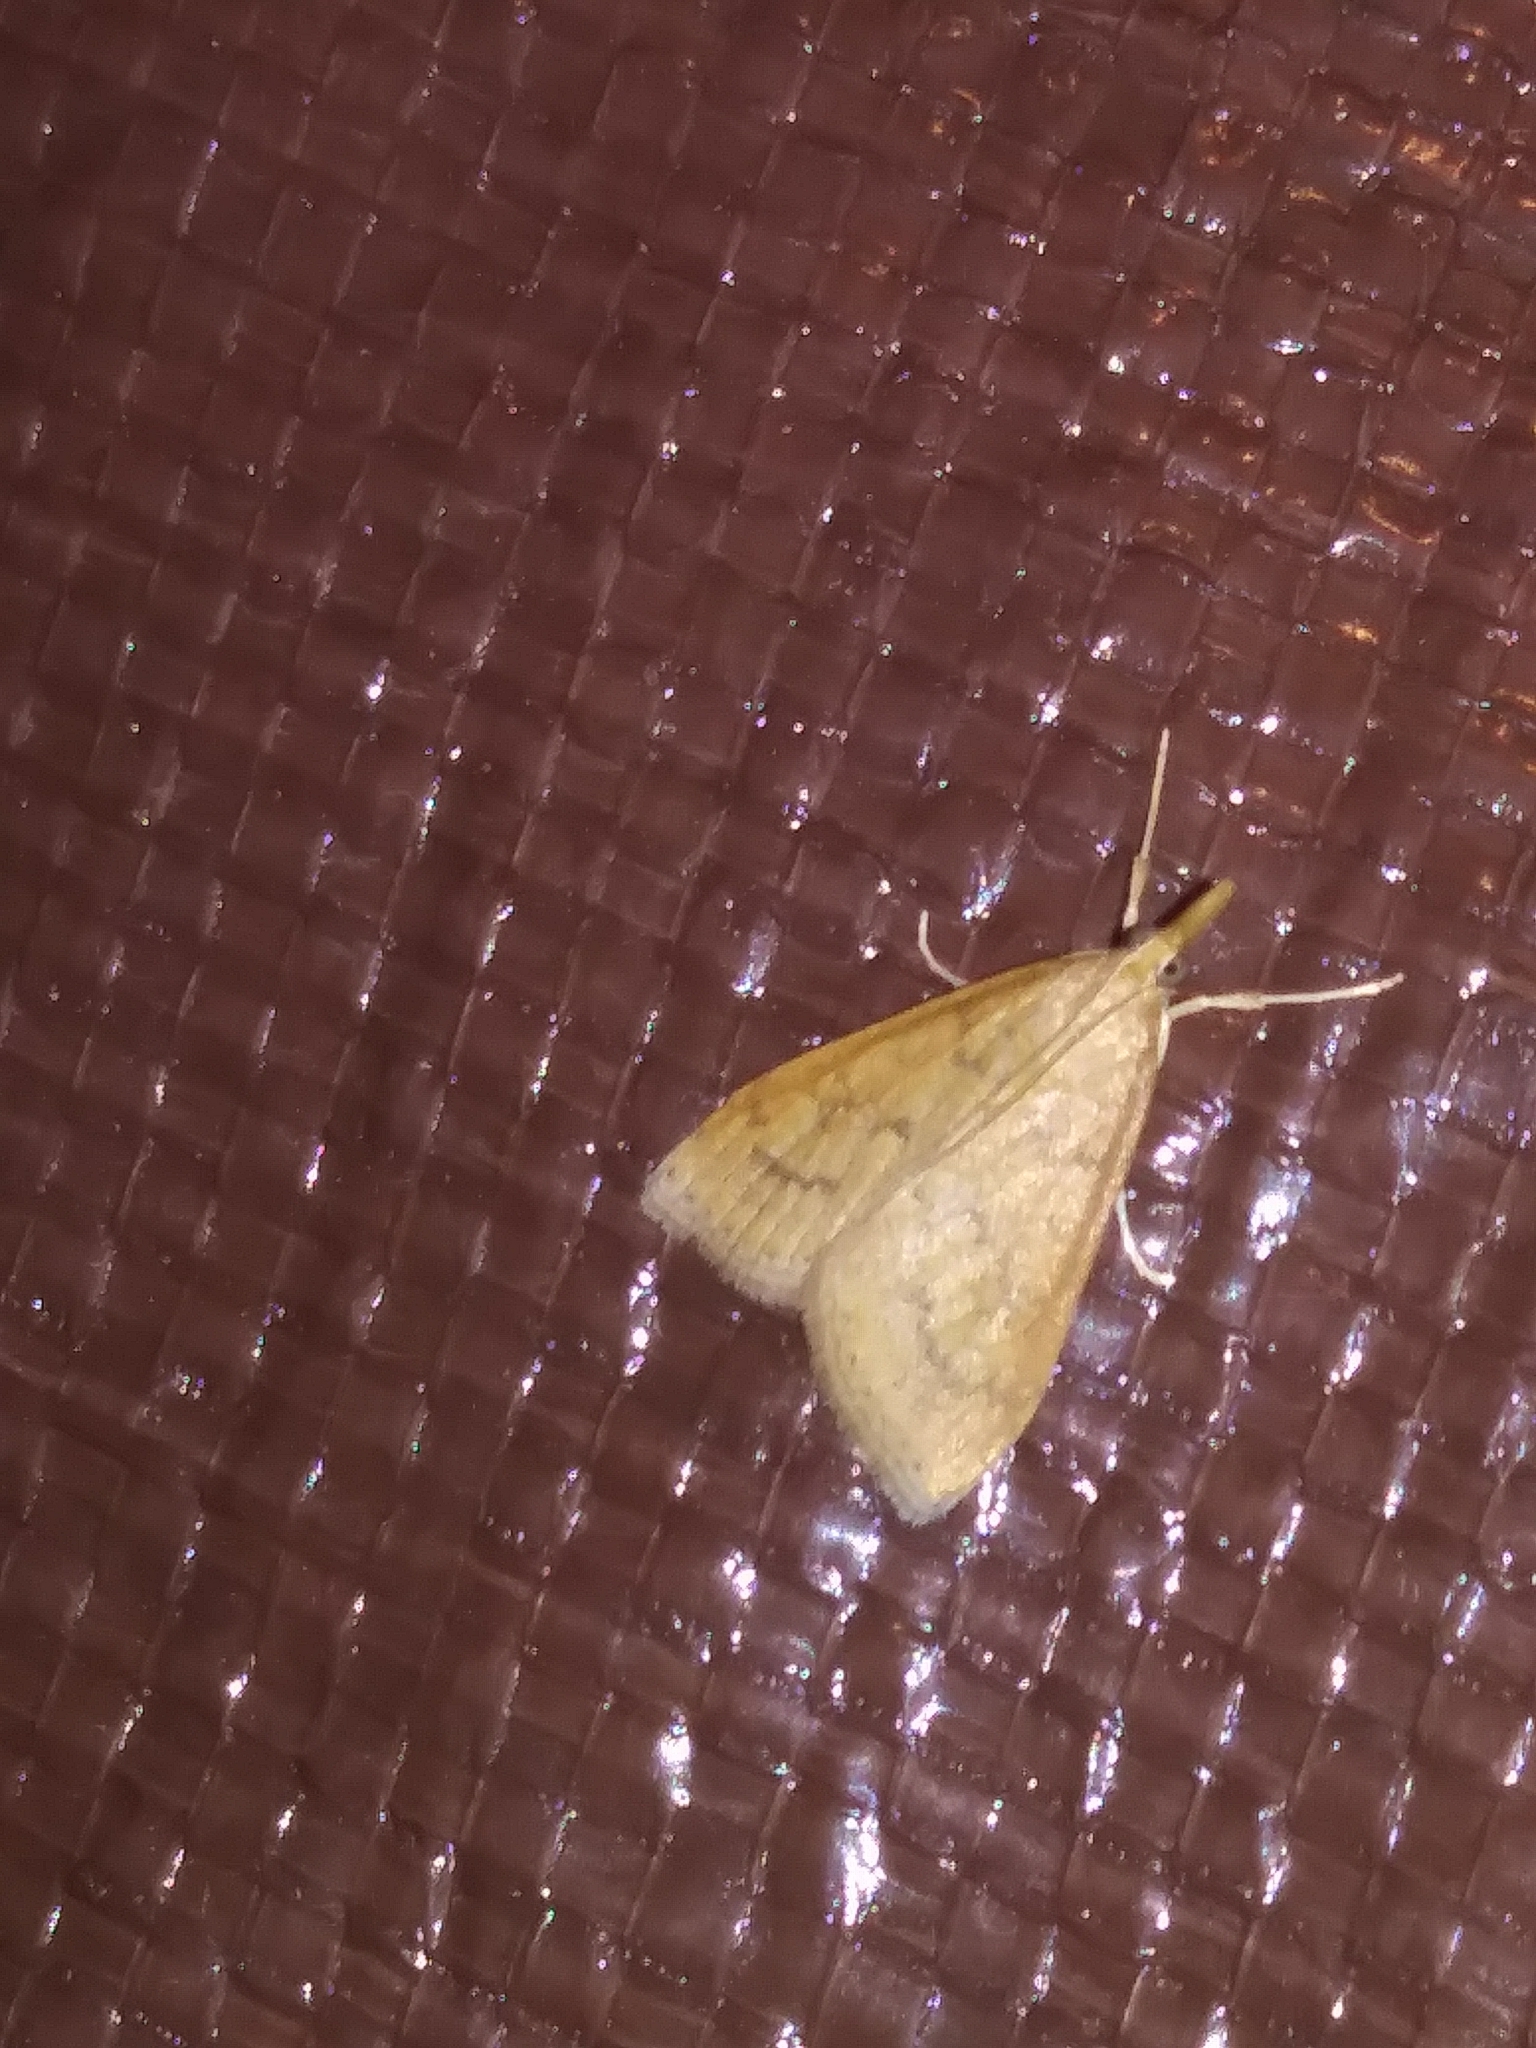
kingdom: Animalia
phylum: Arthropoda
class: Insecta
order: Lepidoptera
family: Crambidae
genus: Udea
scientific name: Udea rubigalis
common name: Celery leaftier moth
